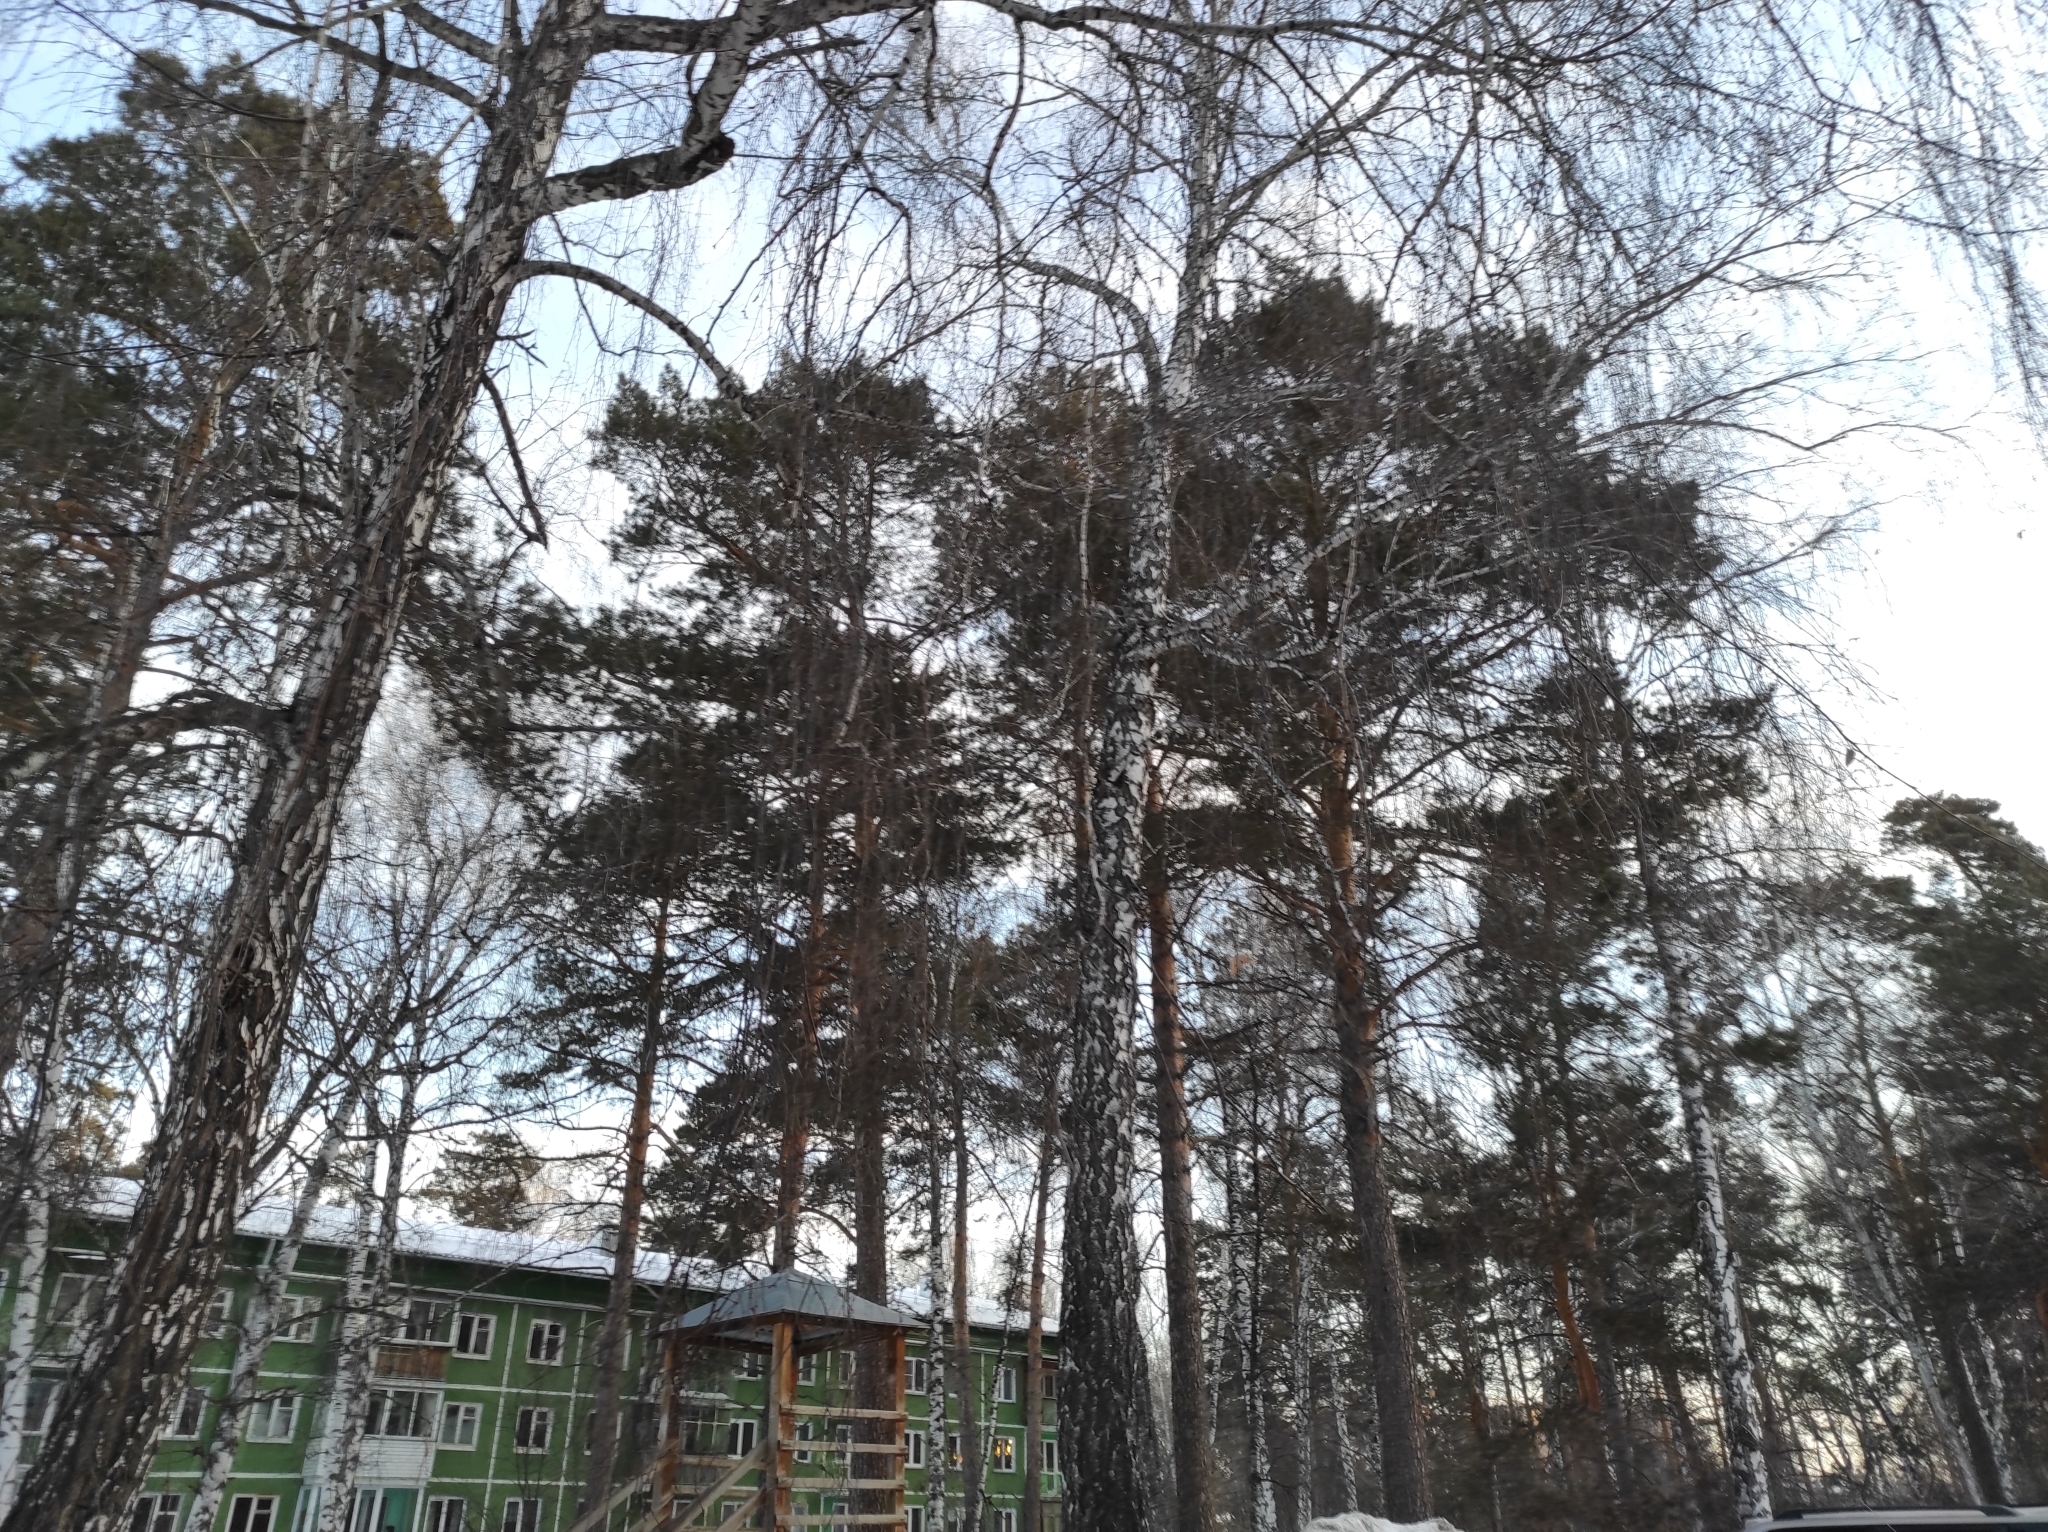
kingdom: Plantae
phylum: Tracheophyta
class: Magnoliopsida
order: Fagales
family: Betulaceae
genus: Betula
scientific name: Betula pendula
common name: Silver birch
